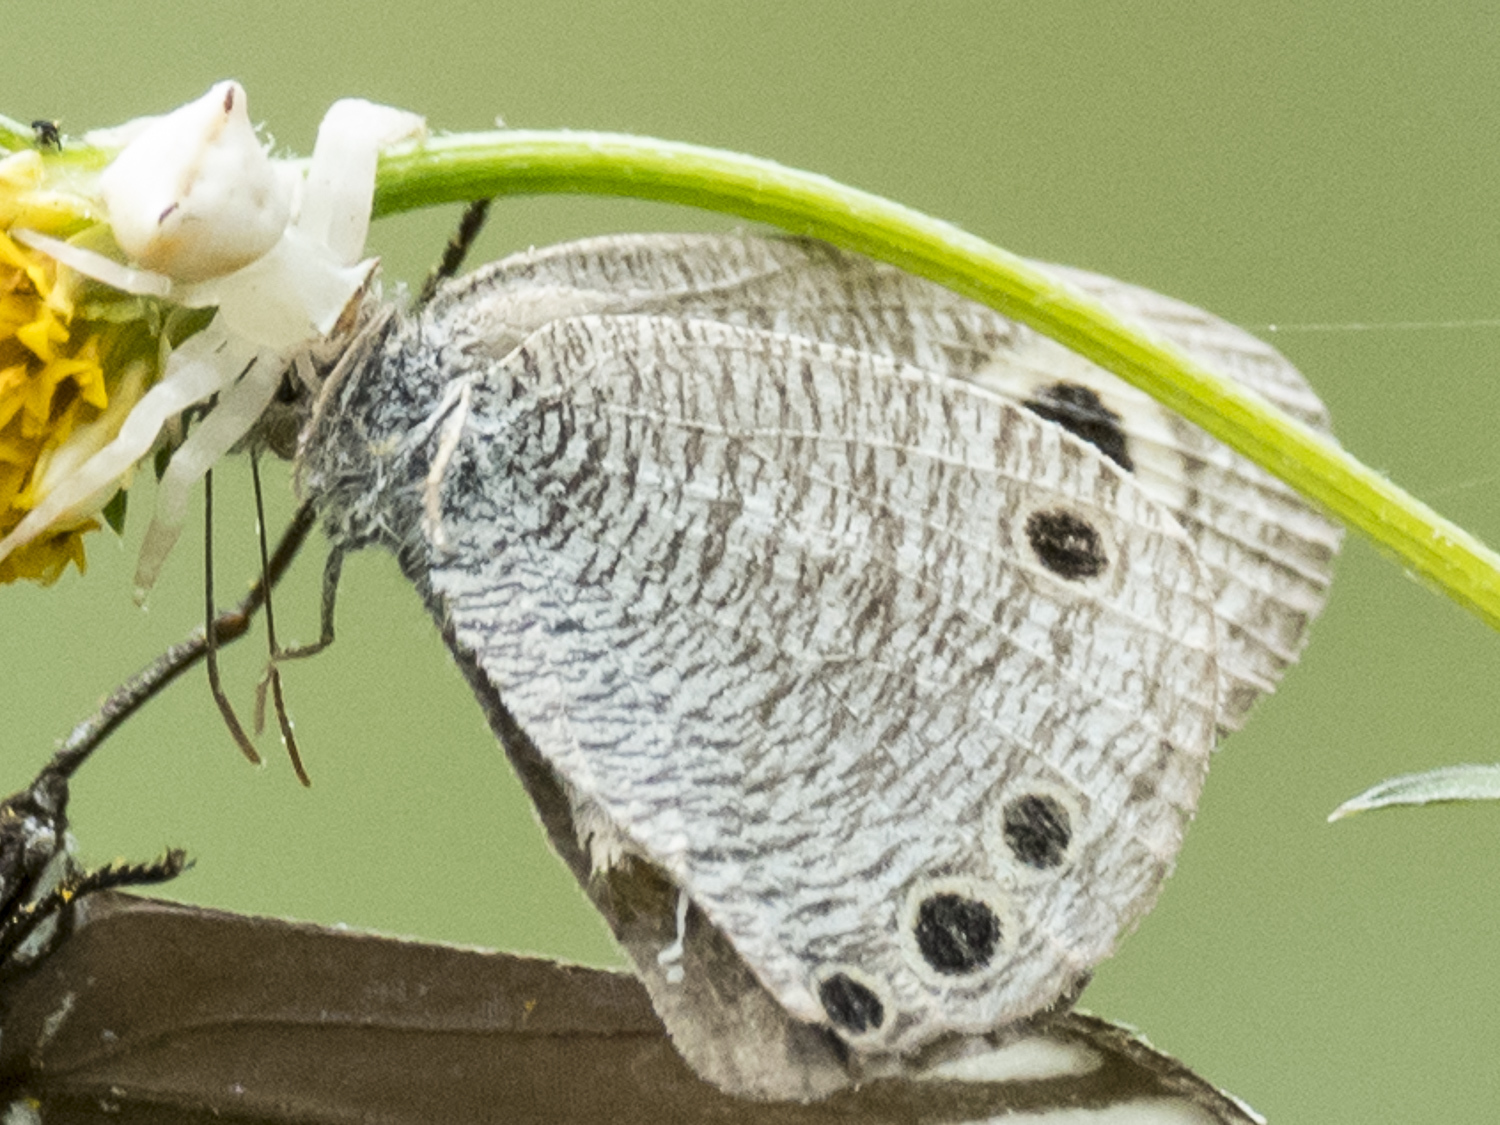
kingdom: Animalia
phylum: Arthropoda
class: Insecta
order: Lepidoptera
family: Nymphalidae
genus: Ypthima
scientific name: Ypthima huebneri
